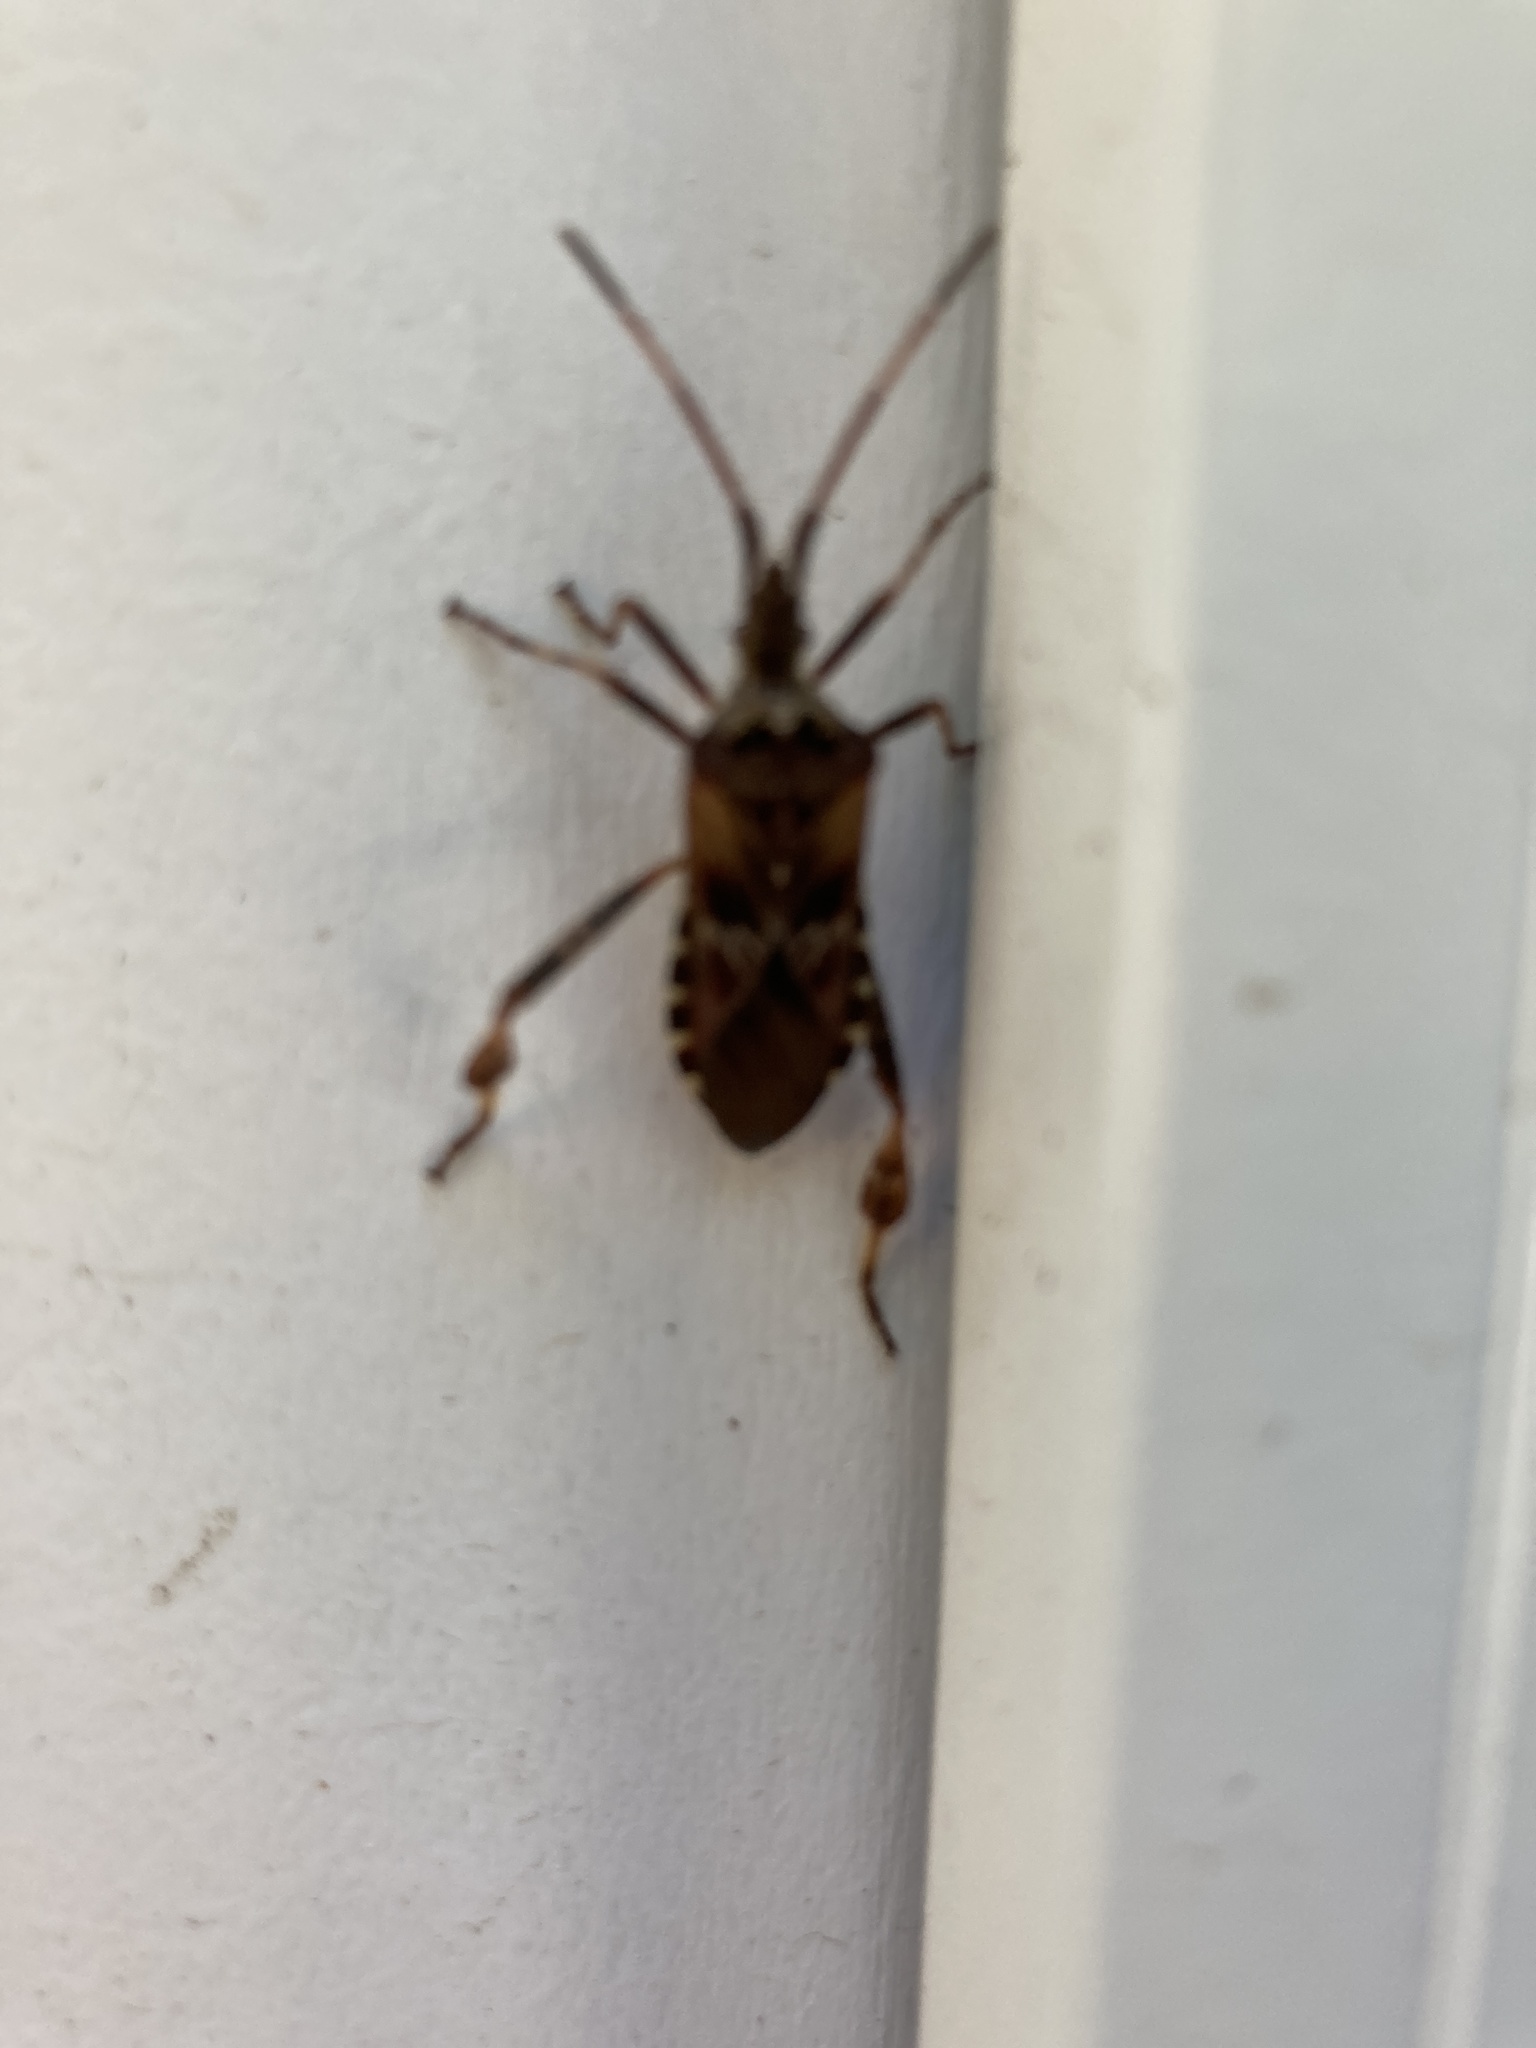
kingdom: Animalia
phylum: Arthropoda
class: Insecta
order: Hemiptera
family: Coreidae
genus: Leptoglossus
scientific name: Leptoglossus occidentalis
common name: Western conifer-seed bug
